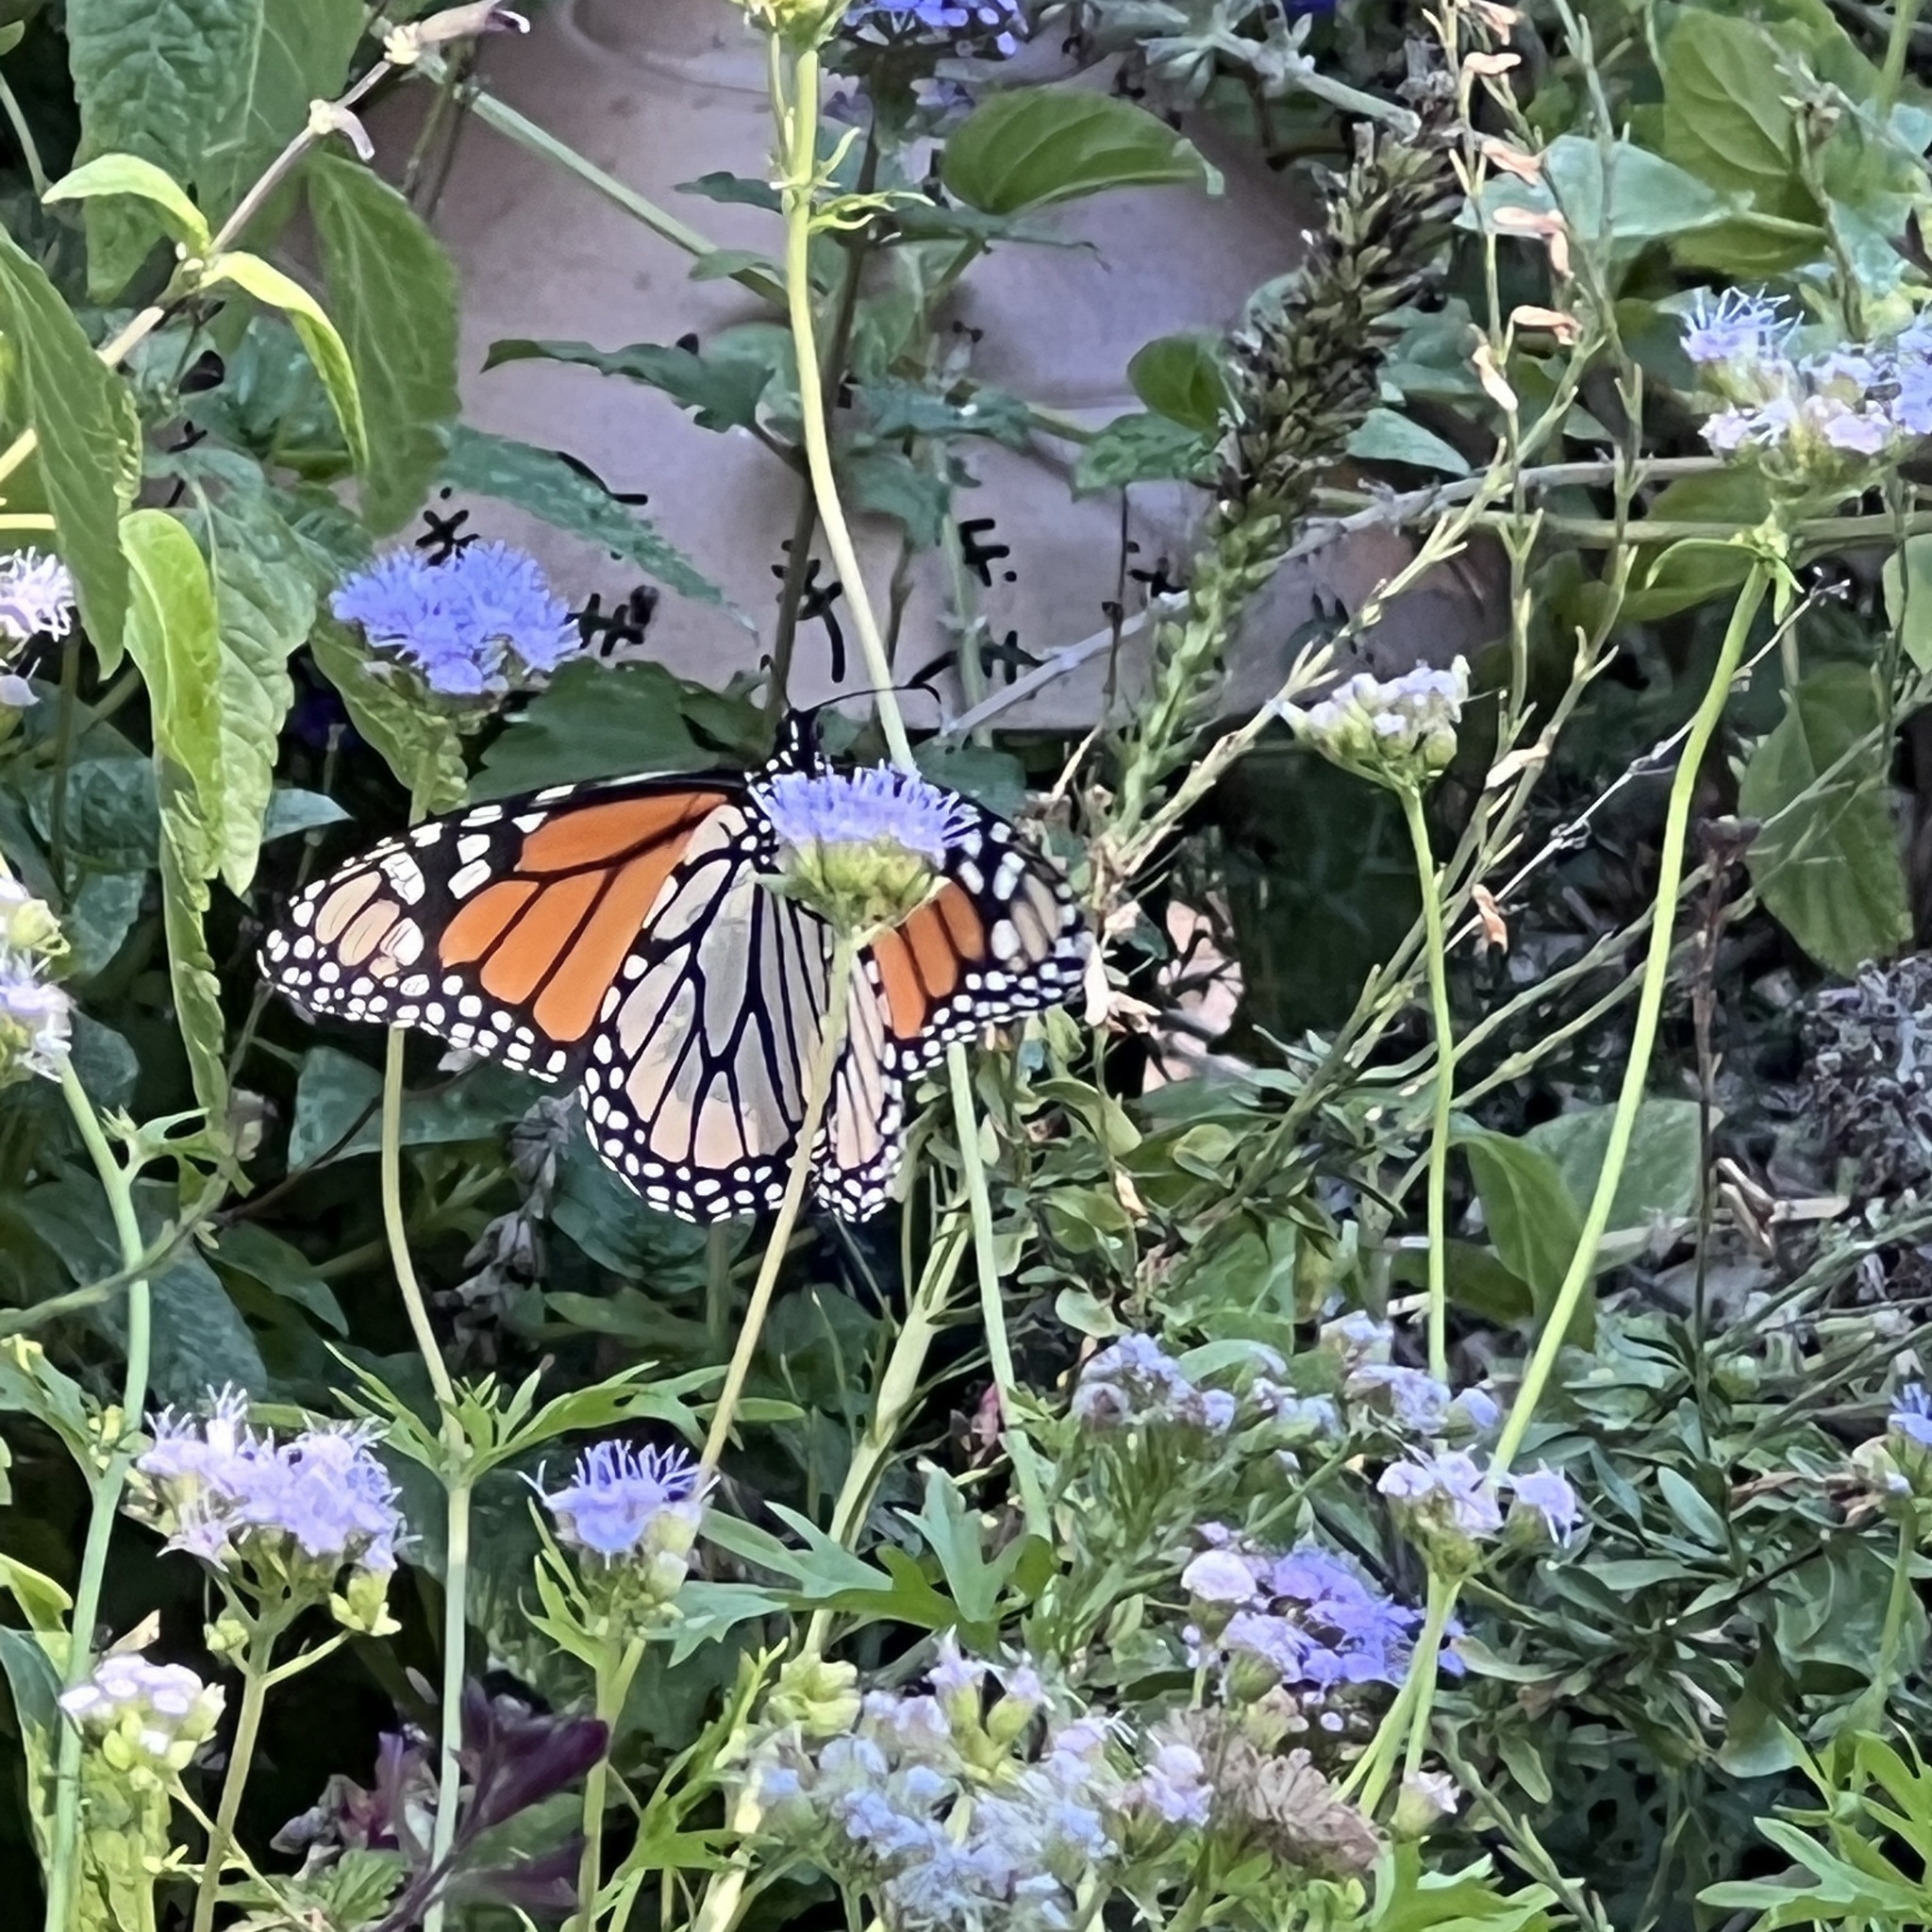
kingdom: Animalia
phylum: Arthropoda
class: Insecta
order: Lepidoptera
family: Nymphalidae
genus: Danaus
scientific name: Danaus plexippus
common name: Monarch
